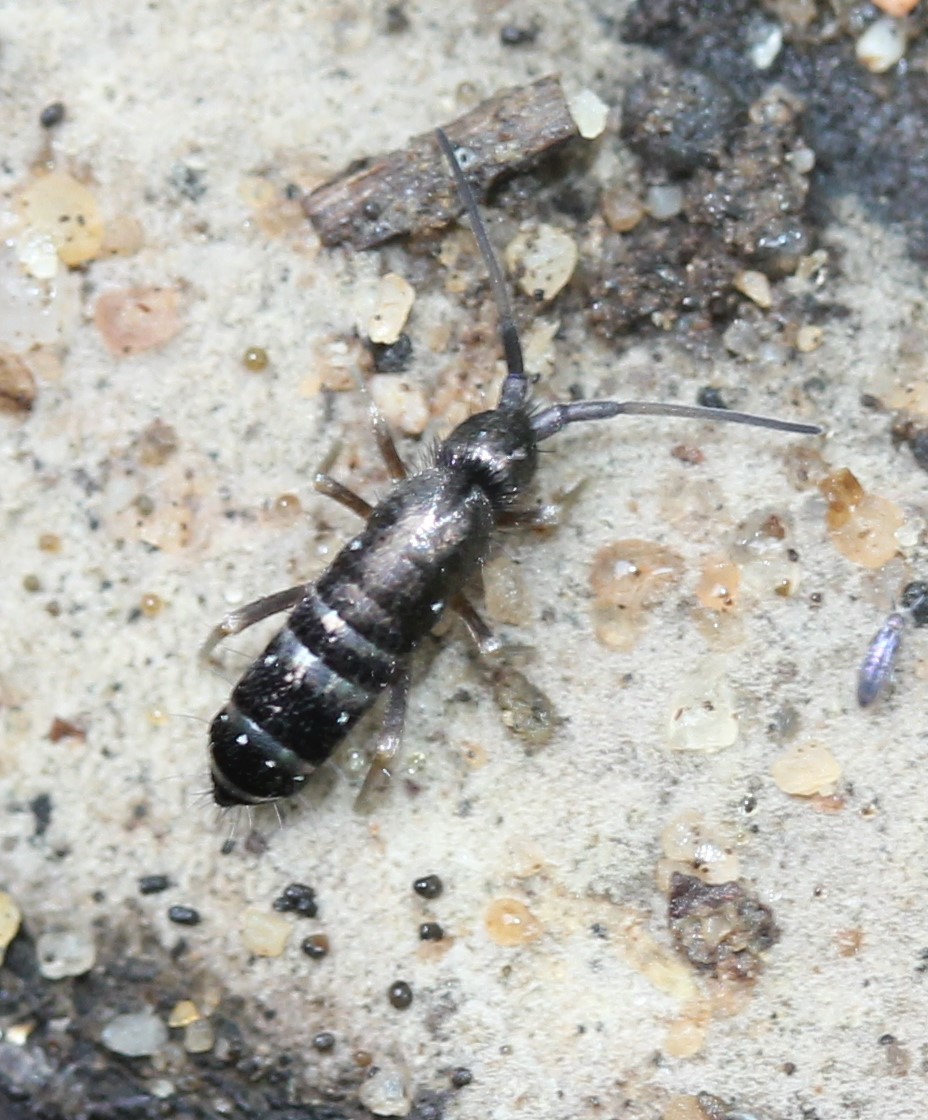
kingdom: Animalia
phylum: Arthropoda
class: Collembola
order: Entomobryomorpha
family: Tomoceridae
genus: Pogonognathellus
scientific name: Pogonognathellus nigritus
